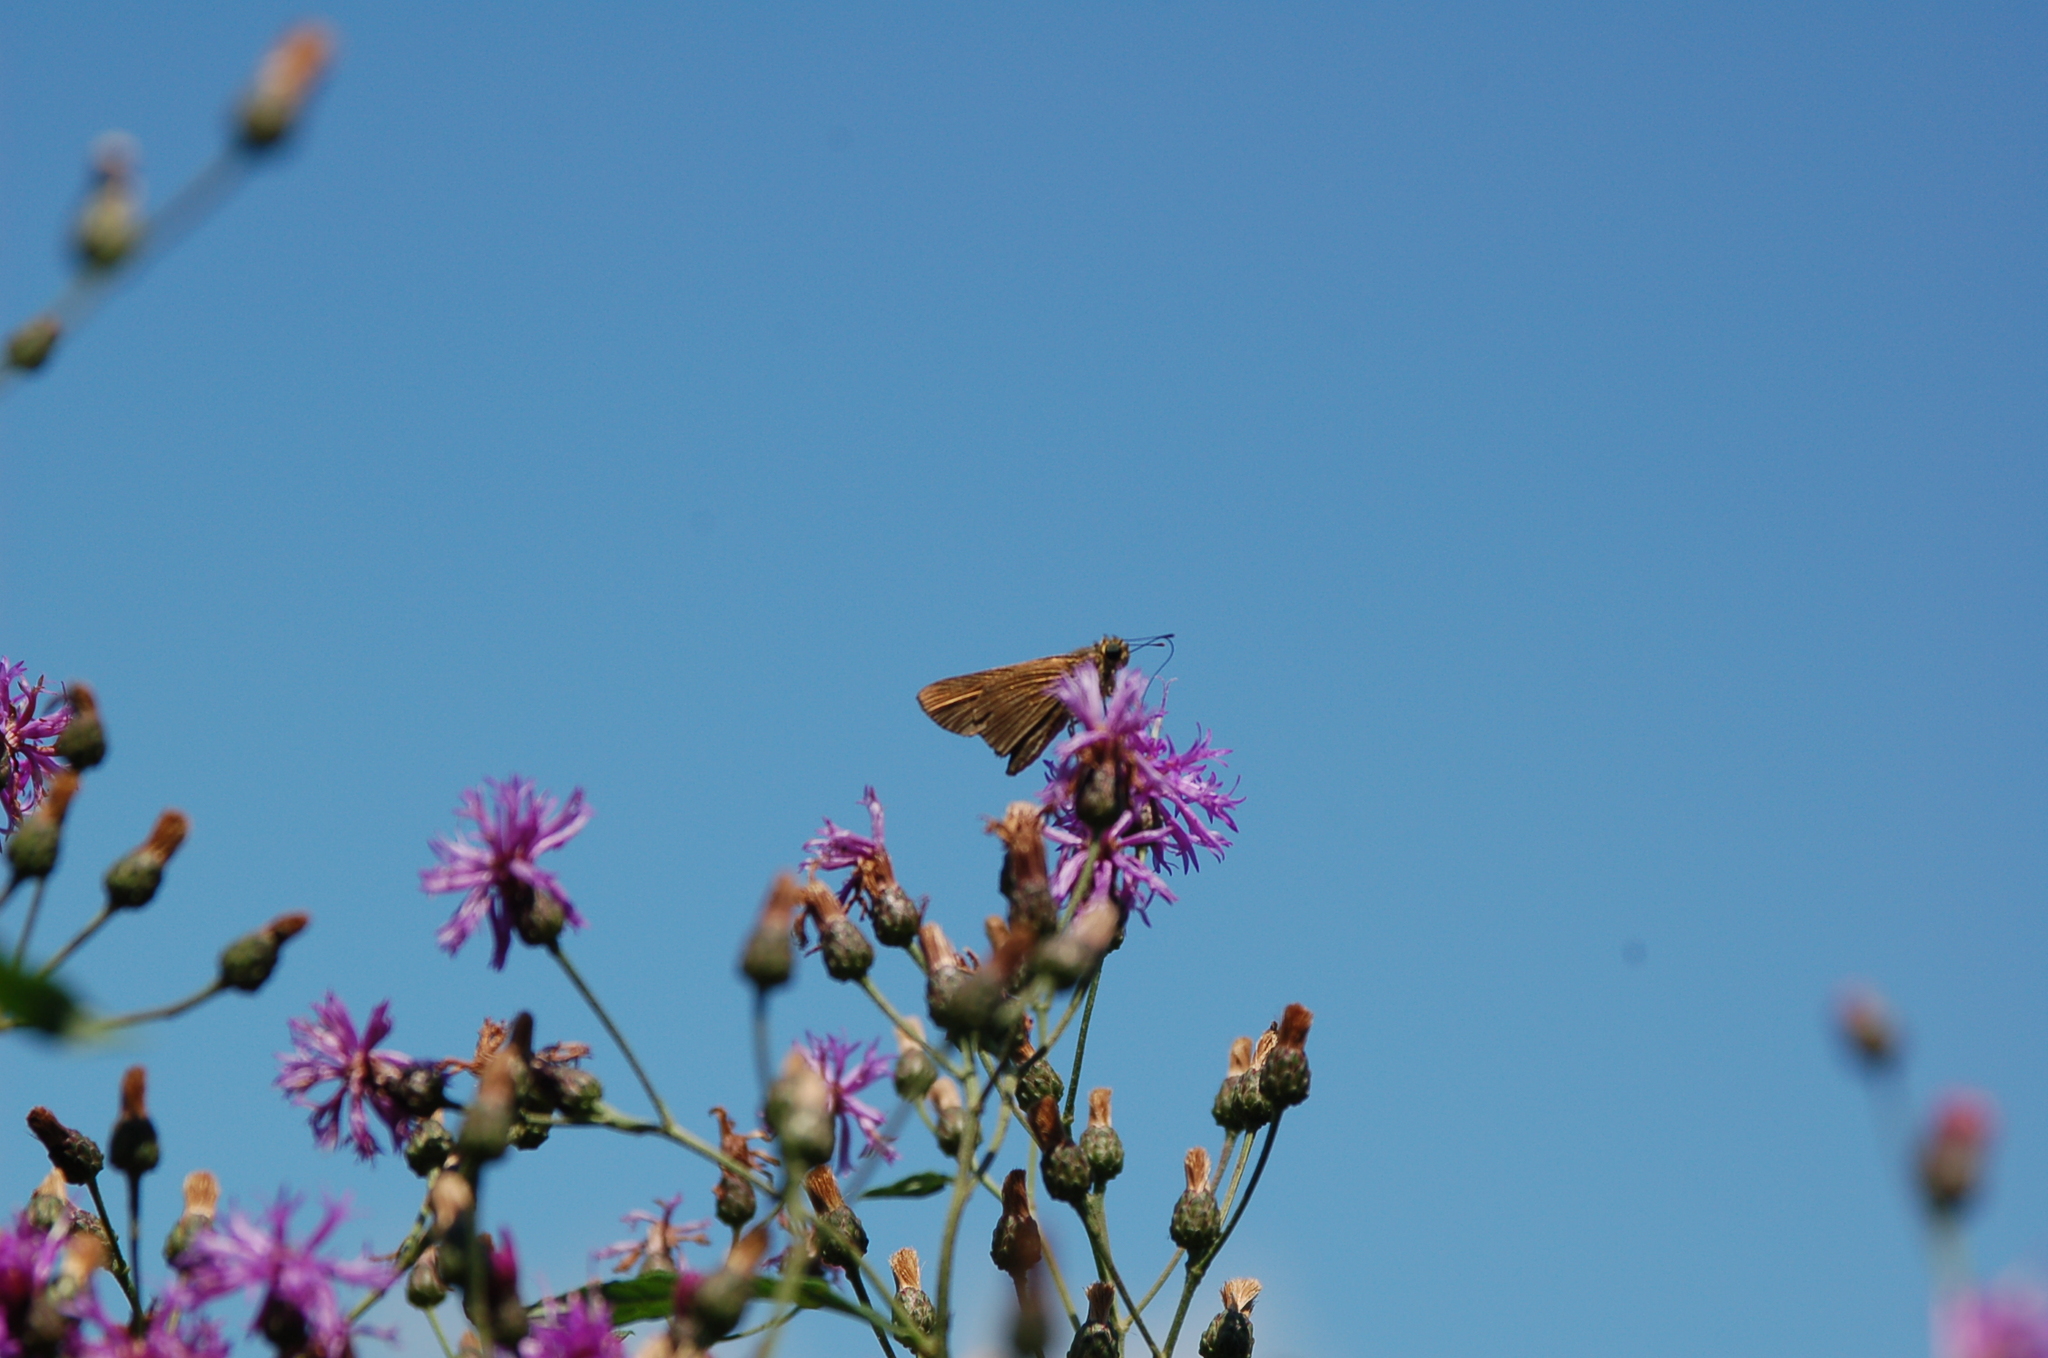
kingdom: Animalia
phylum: Arthropoda
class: Insecta
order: Lepidoptera
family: Hesperiidae
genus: Panoquina
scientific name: Panoquina ocola
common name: Ocola skipper
